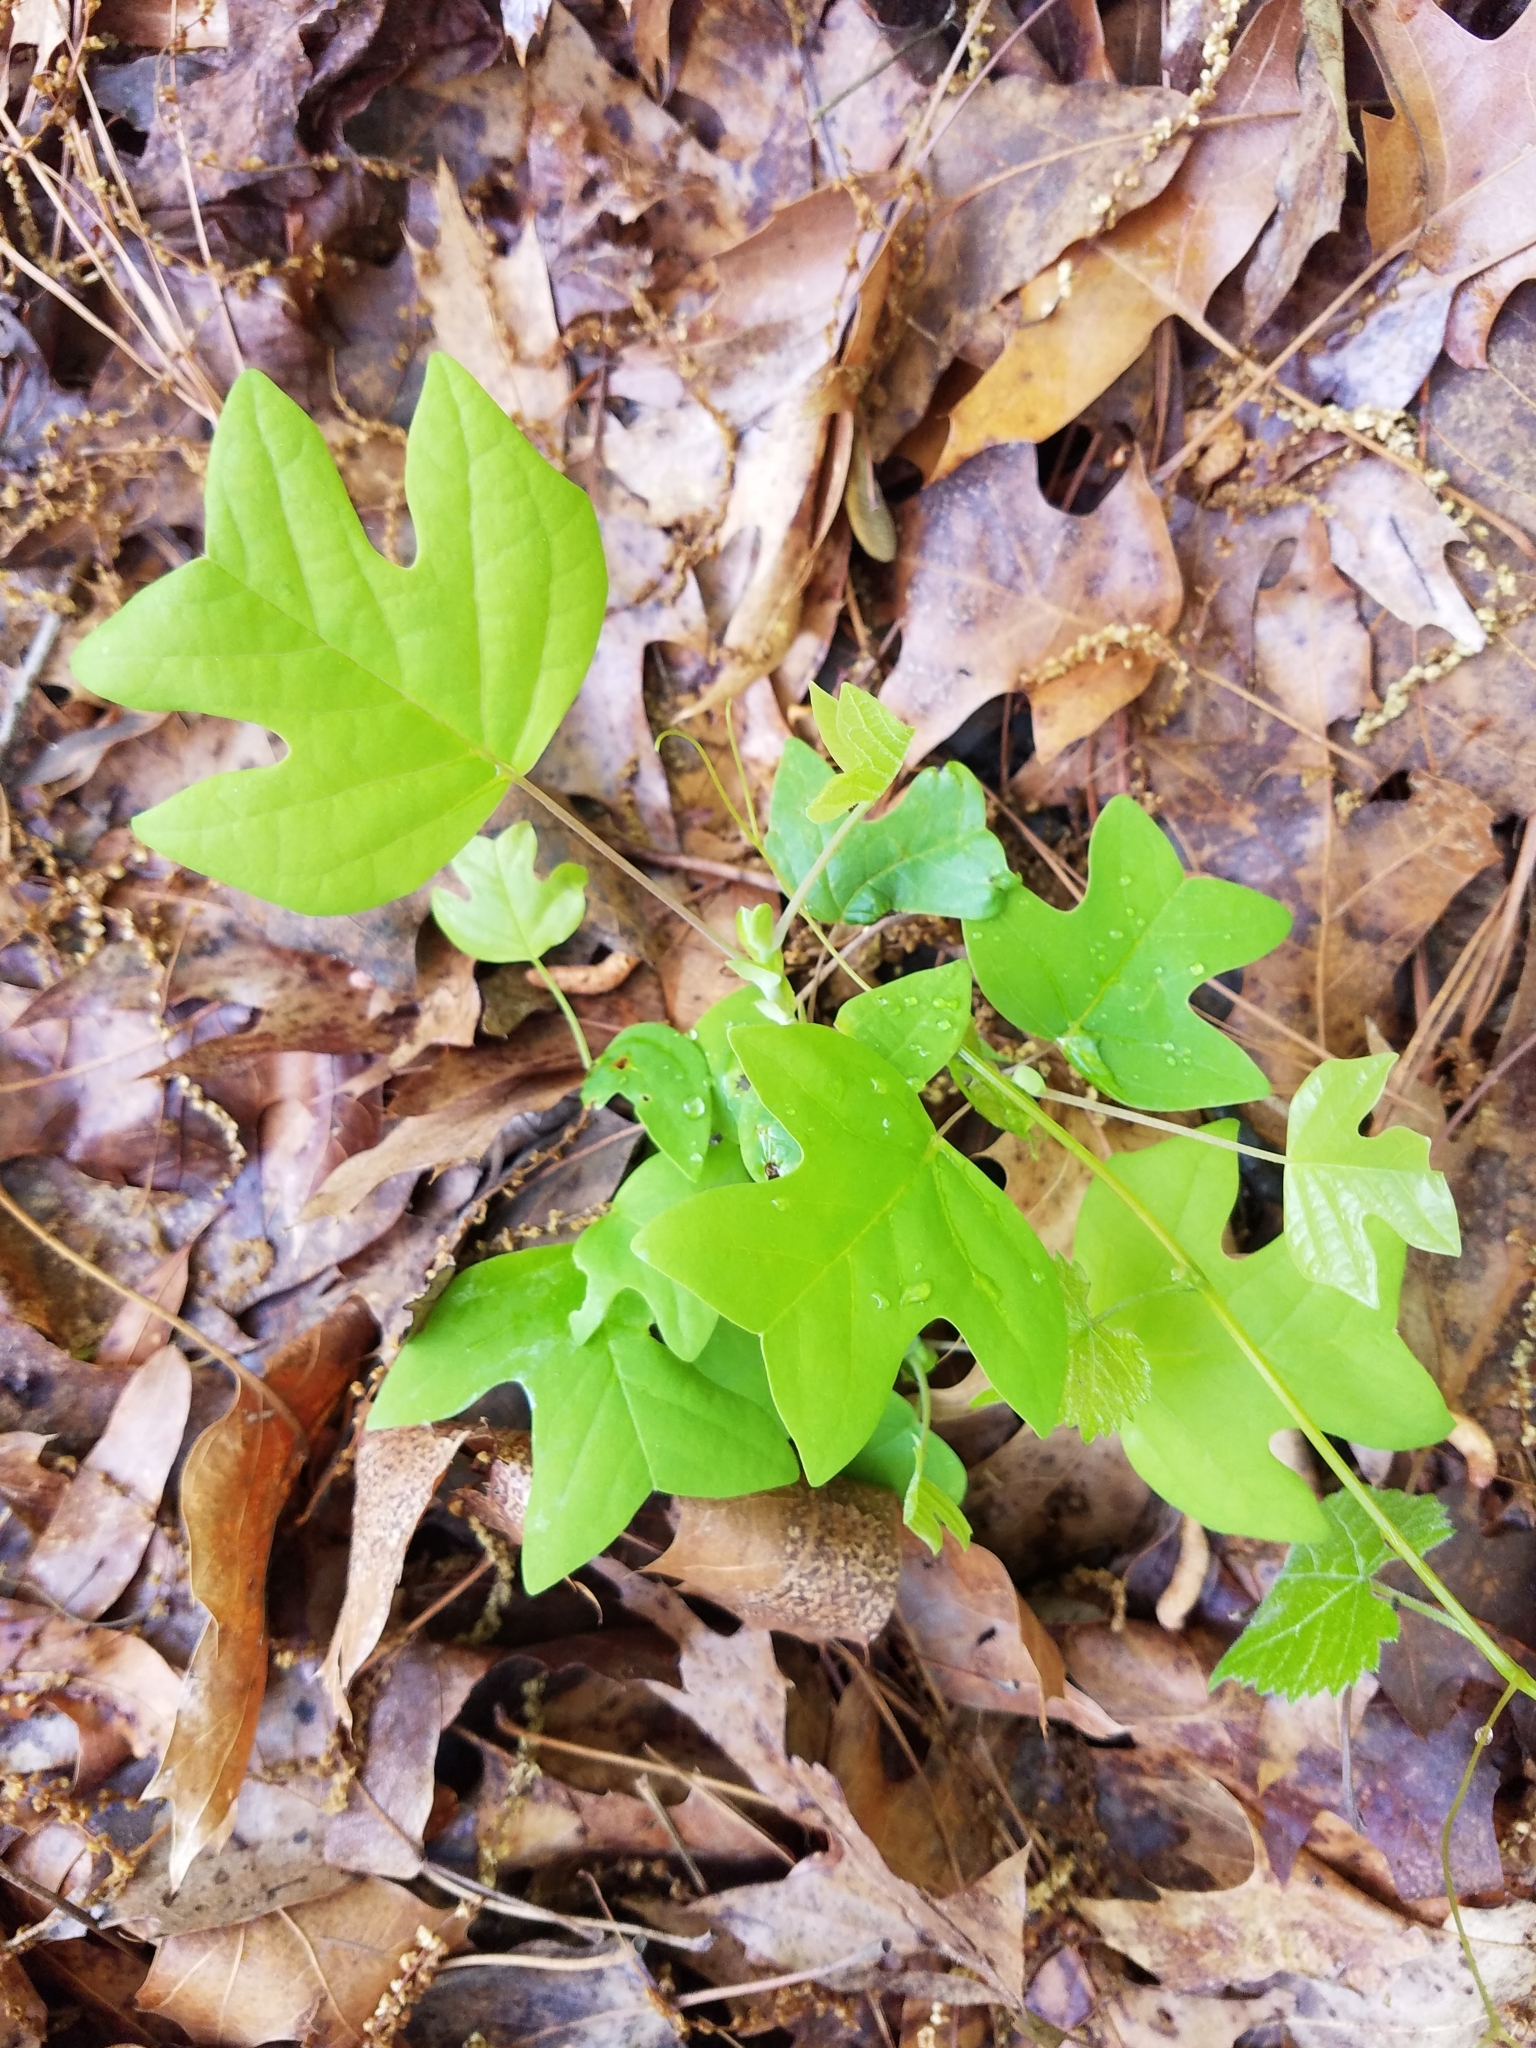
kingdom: Plantae
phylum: Tracheophyta
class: Magnoliopsida
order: Magnoliales
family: Magnoliaceae
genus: Liriodendron
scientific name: Liriodendron tulipifera
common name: Tulip tree
